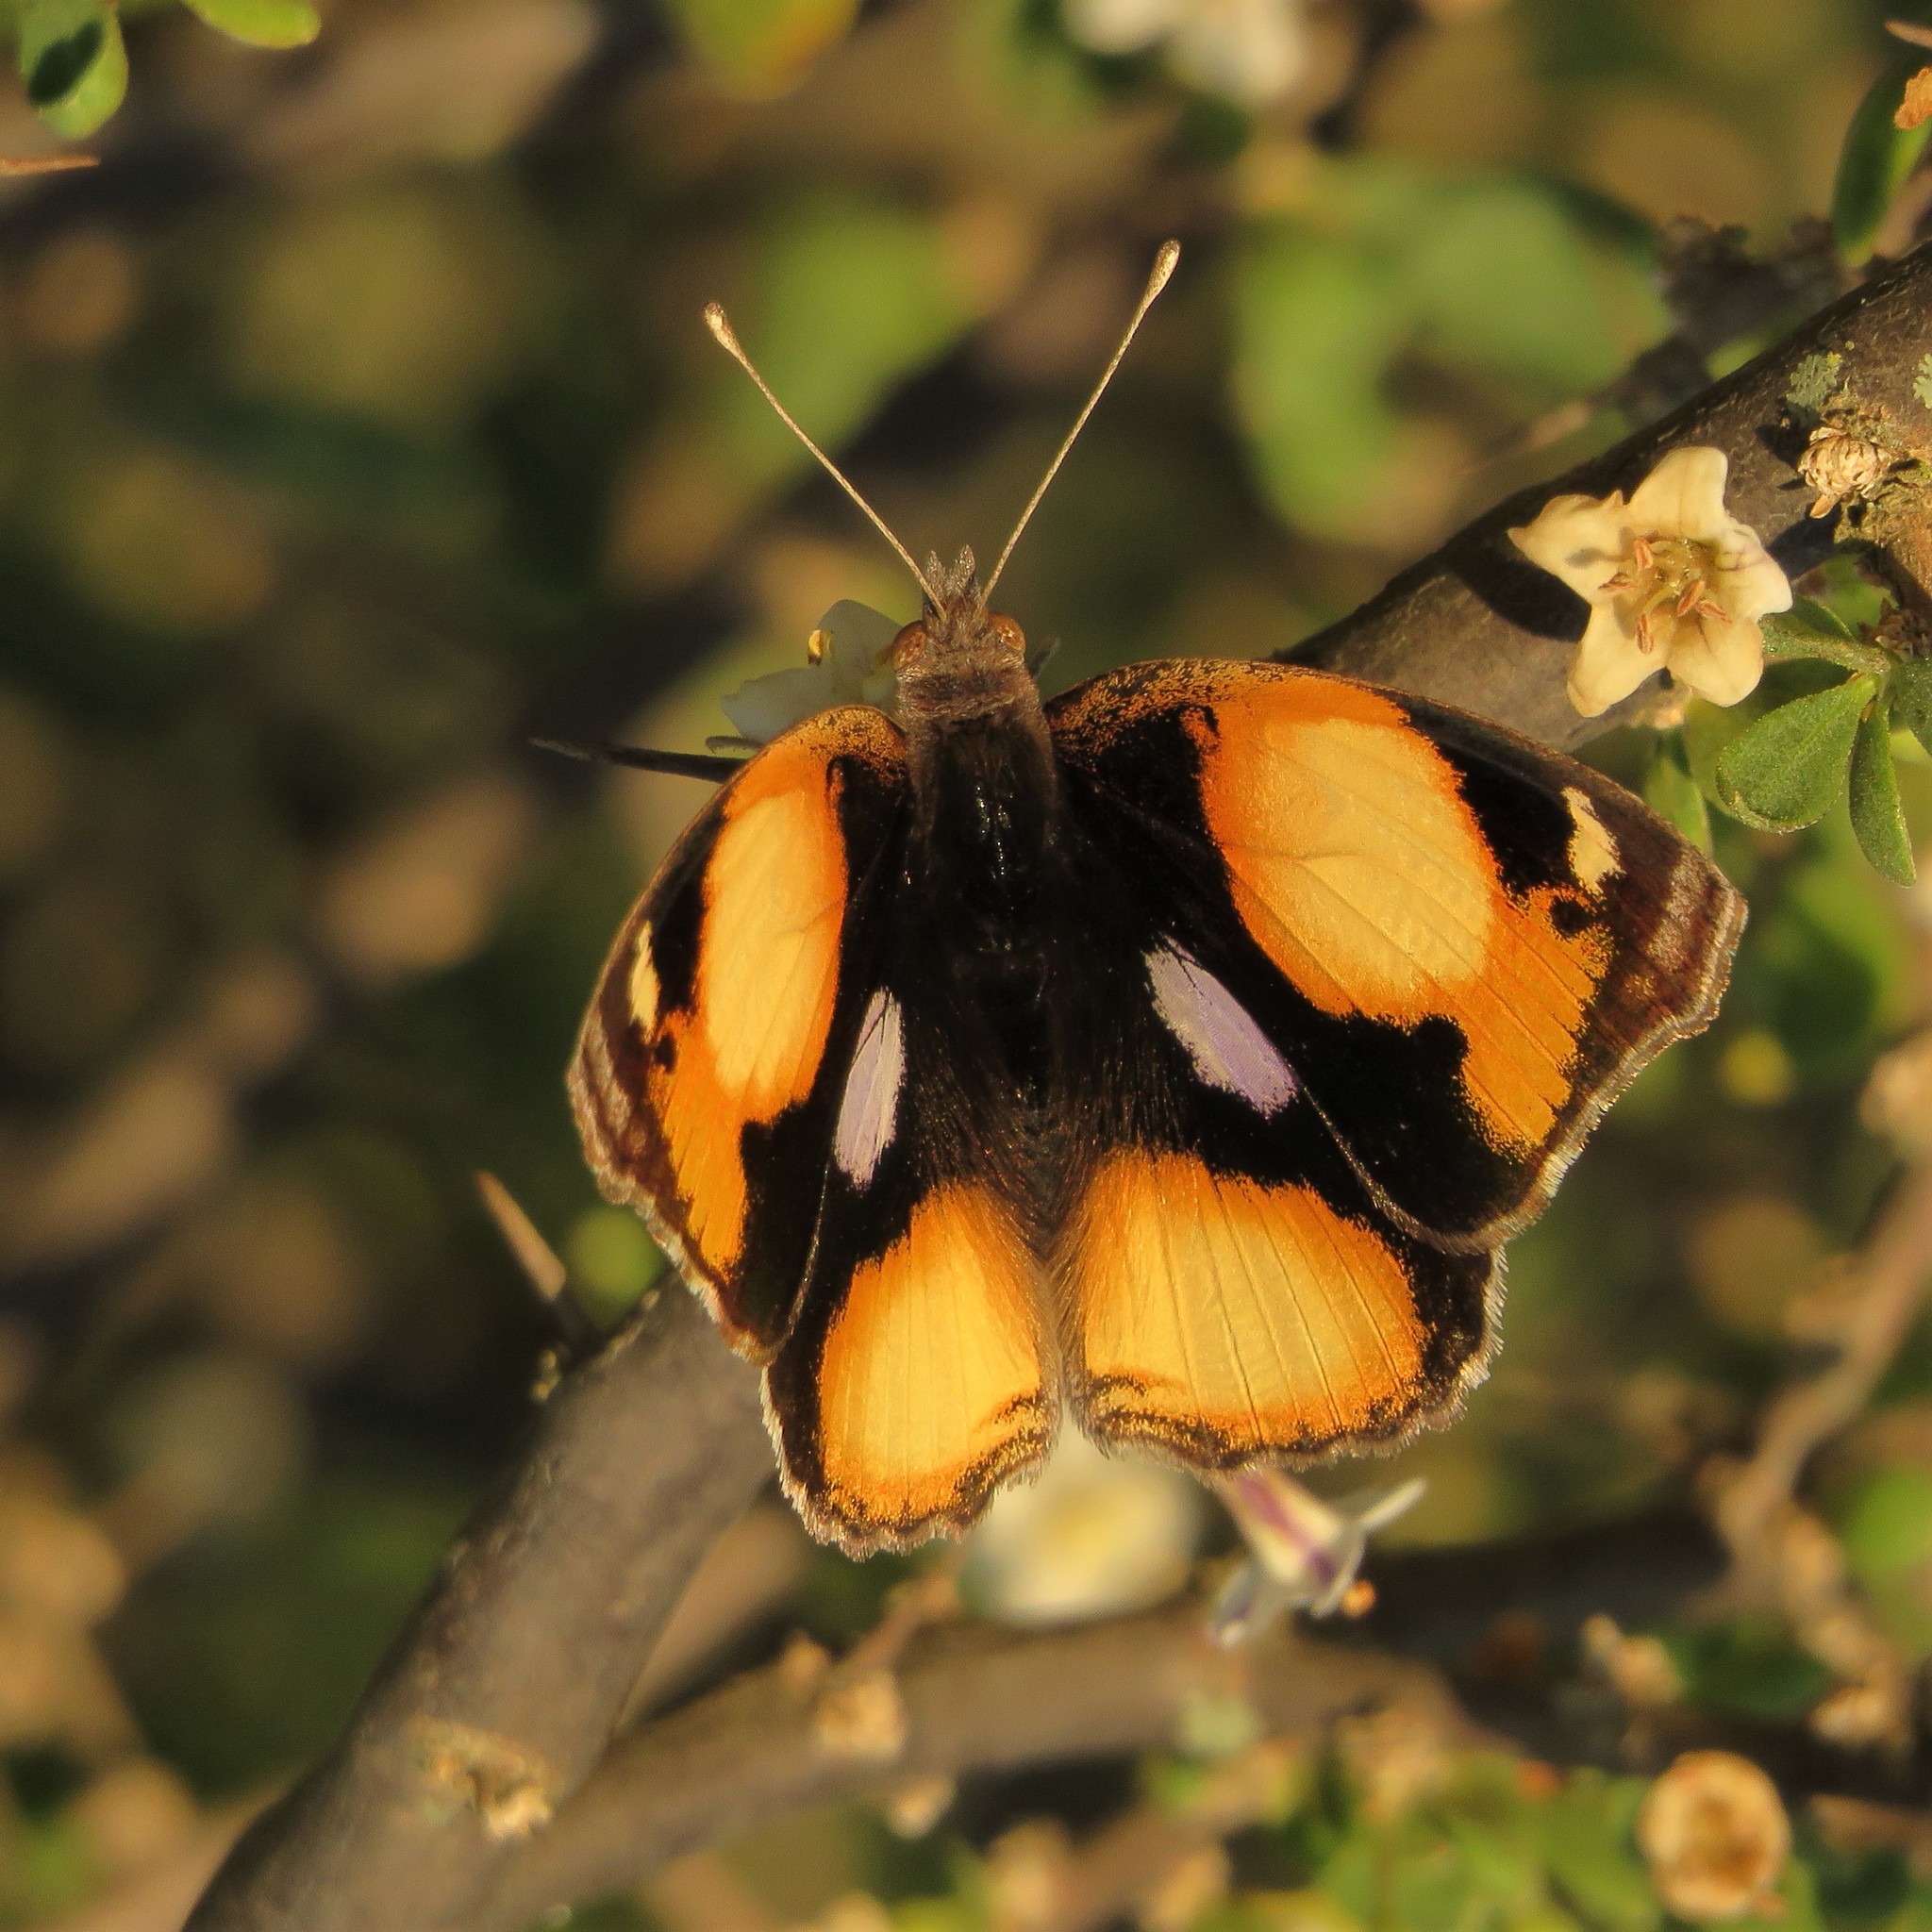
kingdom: Animalia
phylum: Arthropoda
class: Insecta
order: Lepidoptera
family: Nymphalidae
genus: Junonia
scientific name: Junonia hierta
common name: Yellow pansy
